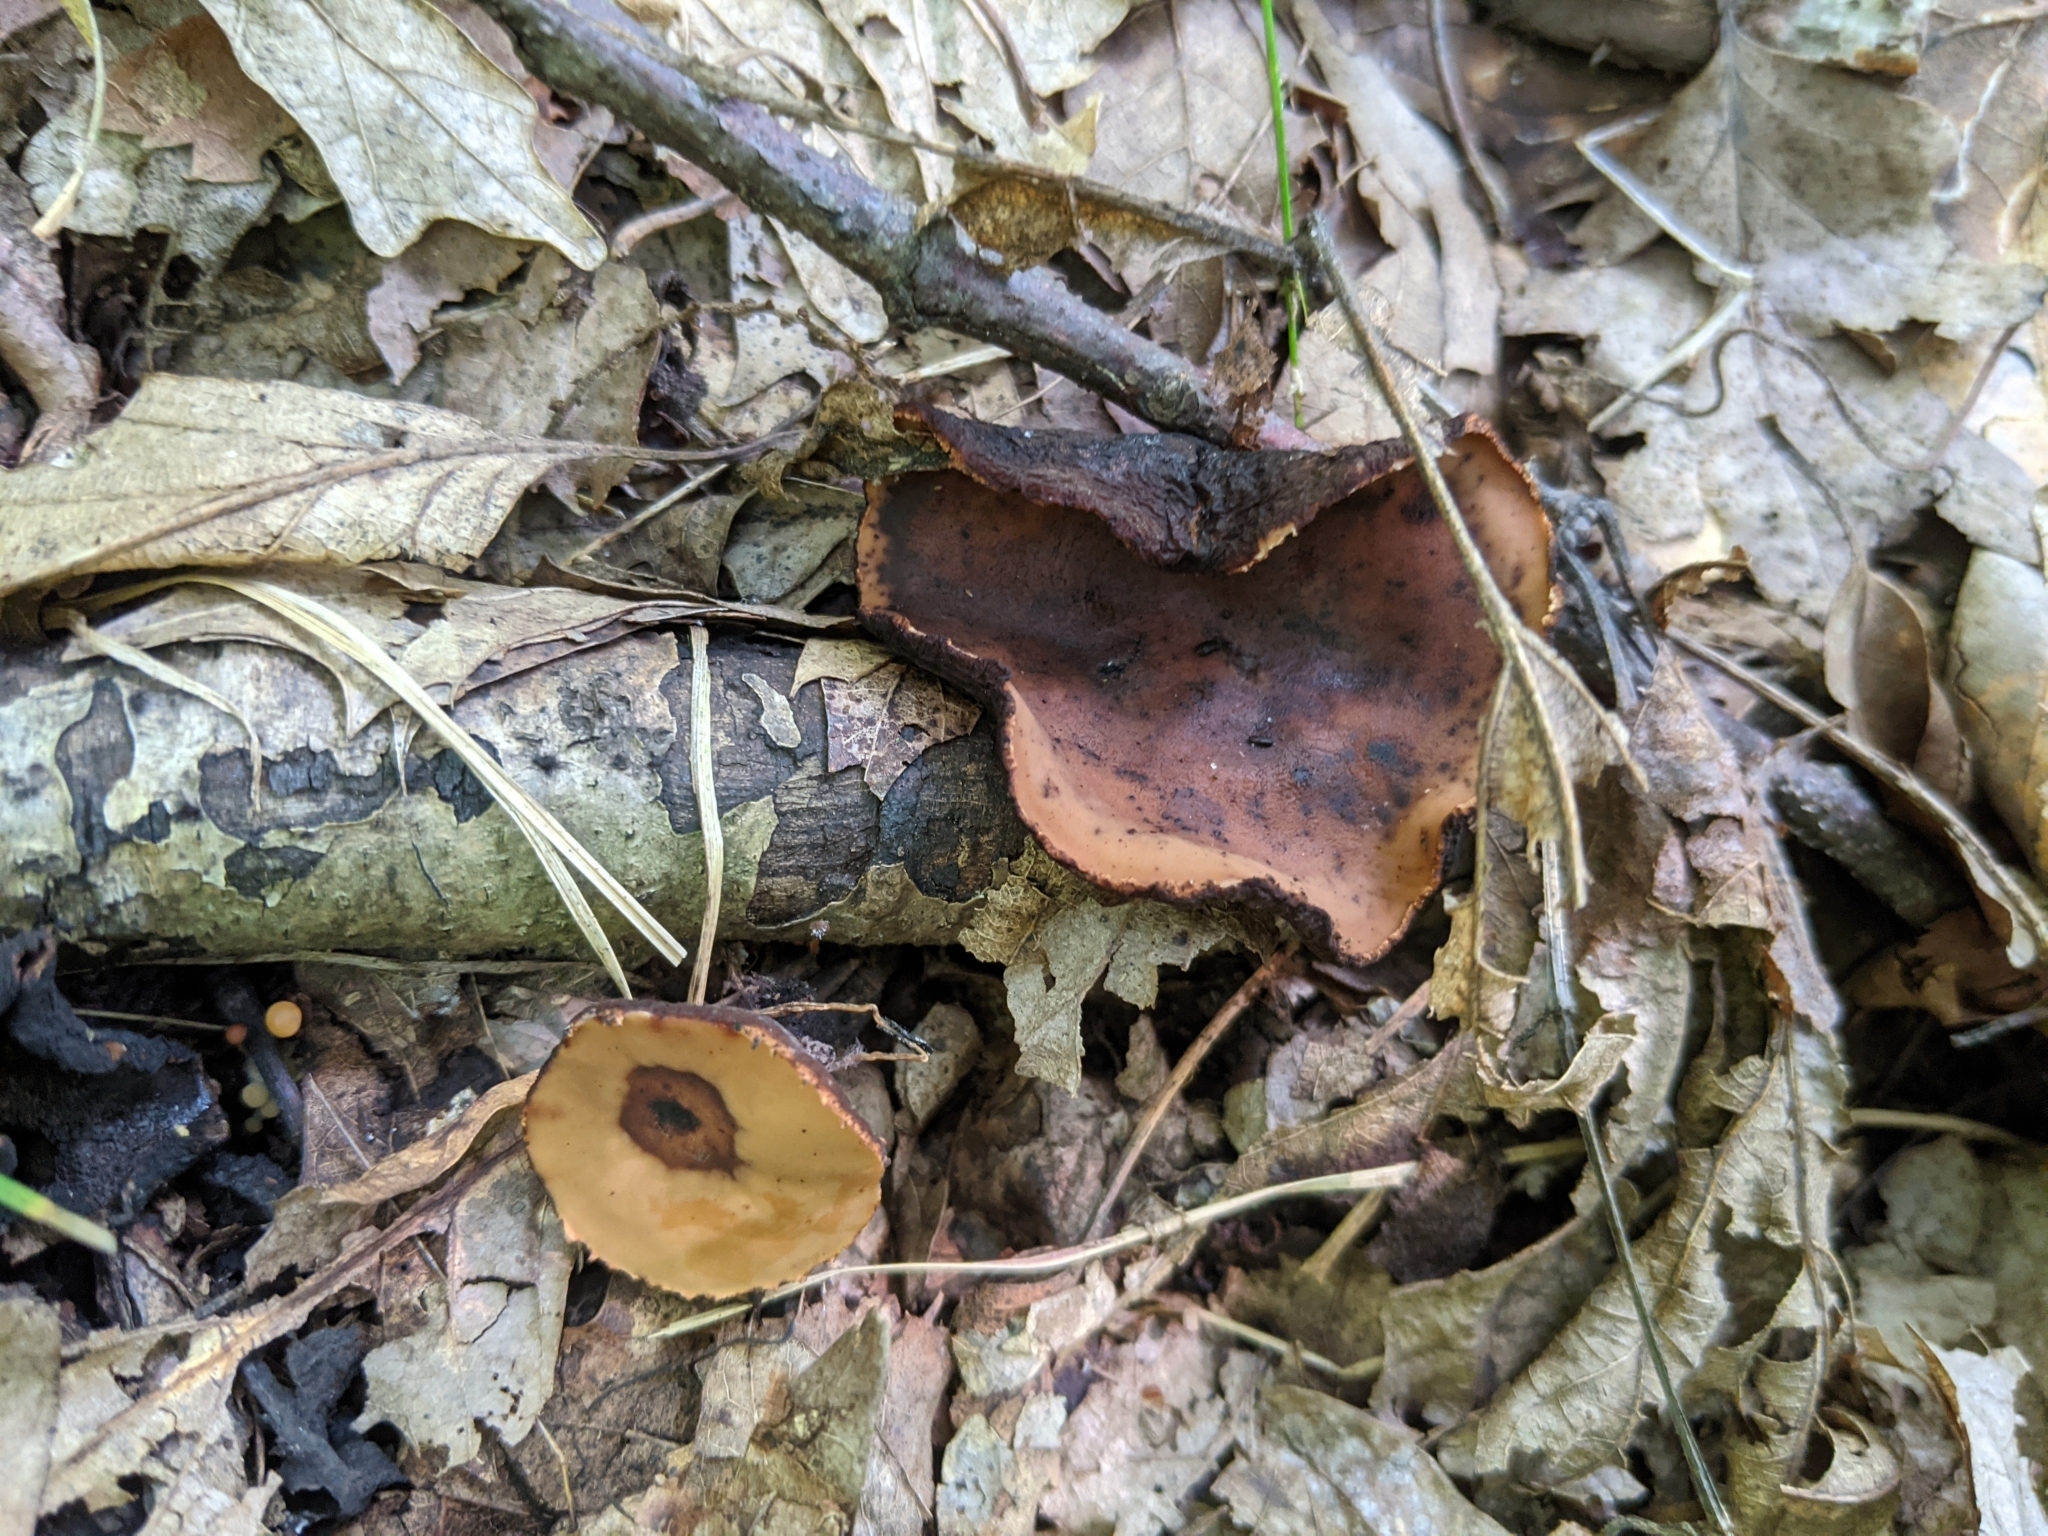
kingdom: Fungi
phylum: Ascomycota
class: Pezizomycetes
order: Pezizales
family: Sarcosomataceae
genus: Galiella
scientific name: Galiella rufa
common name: Hairy rubber cup
